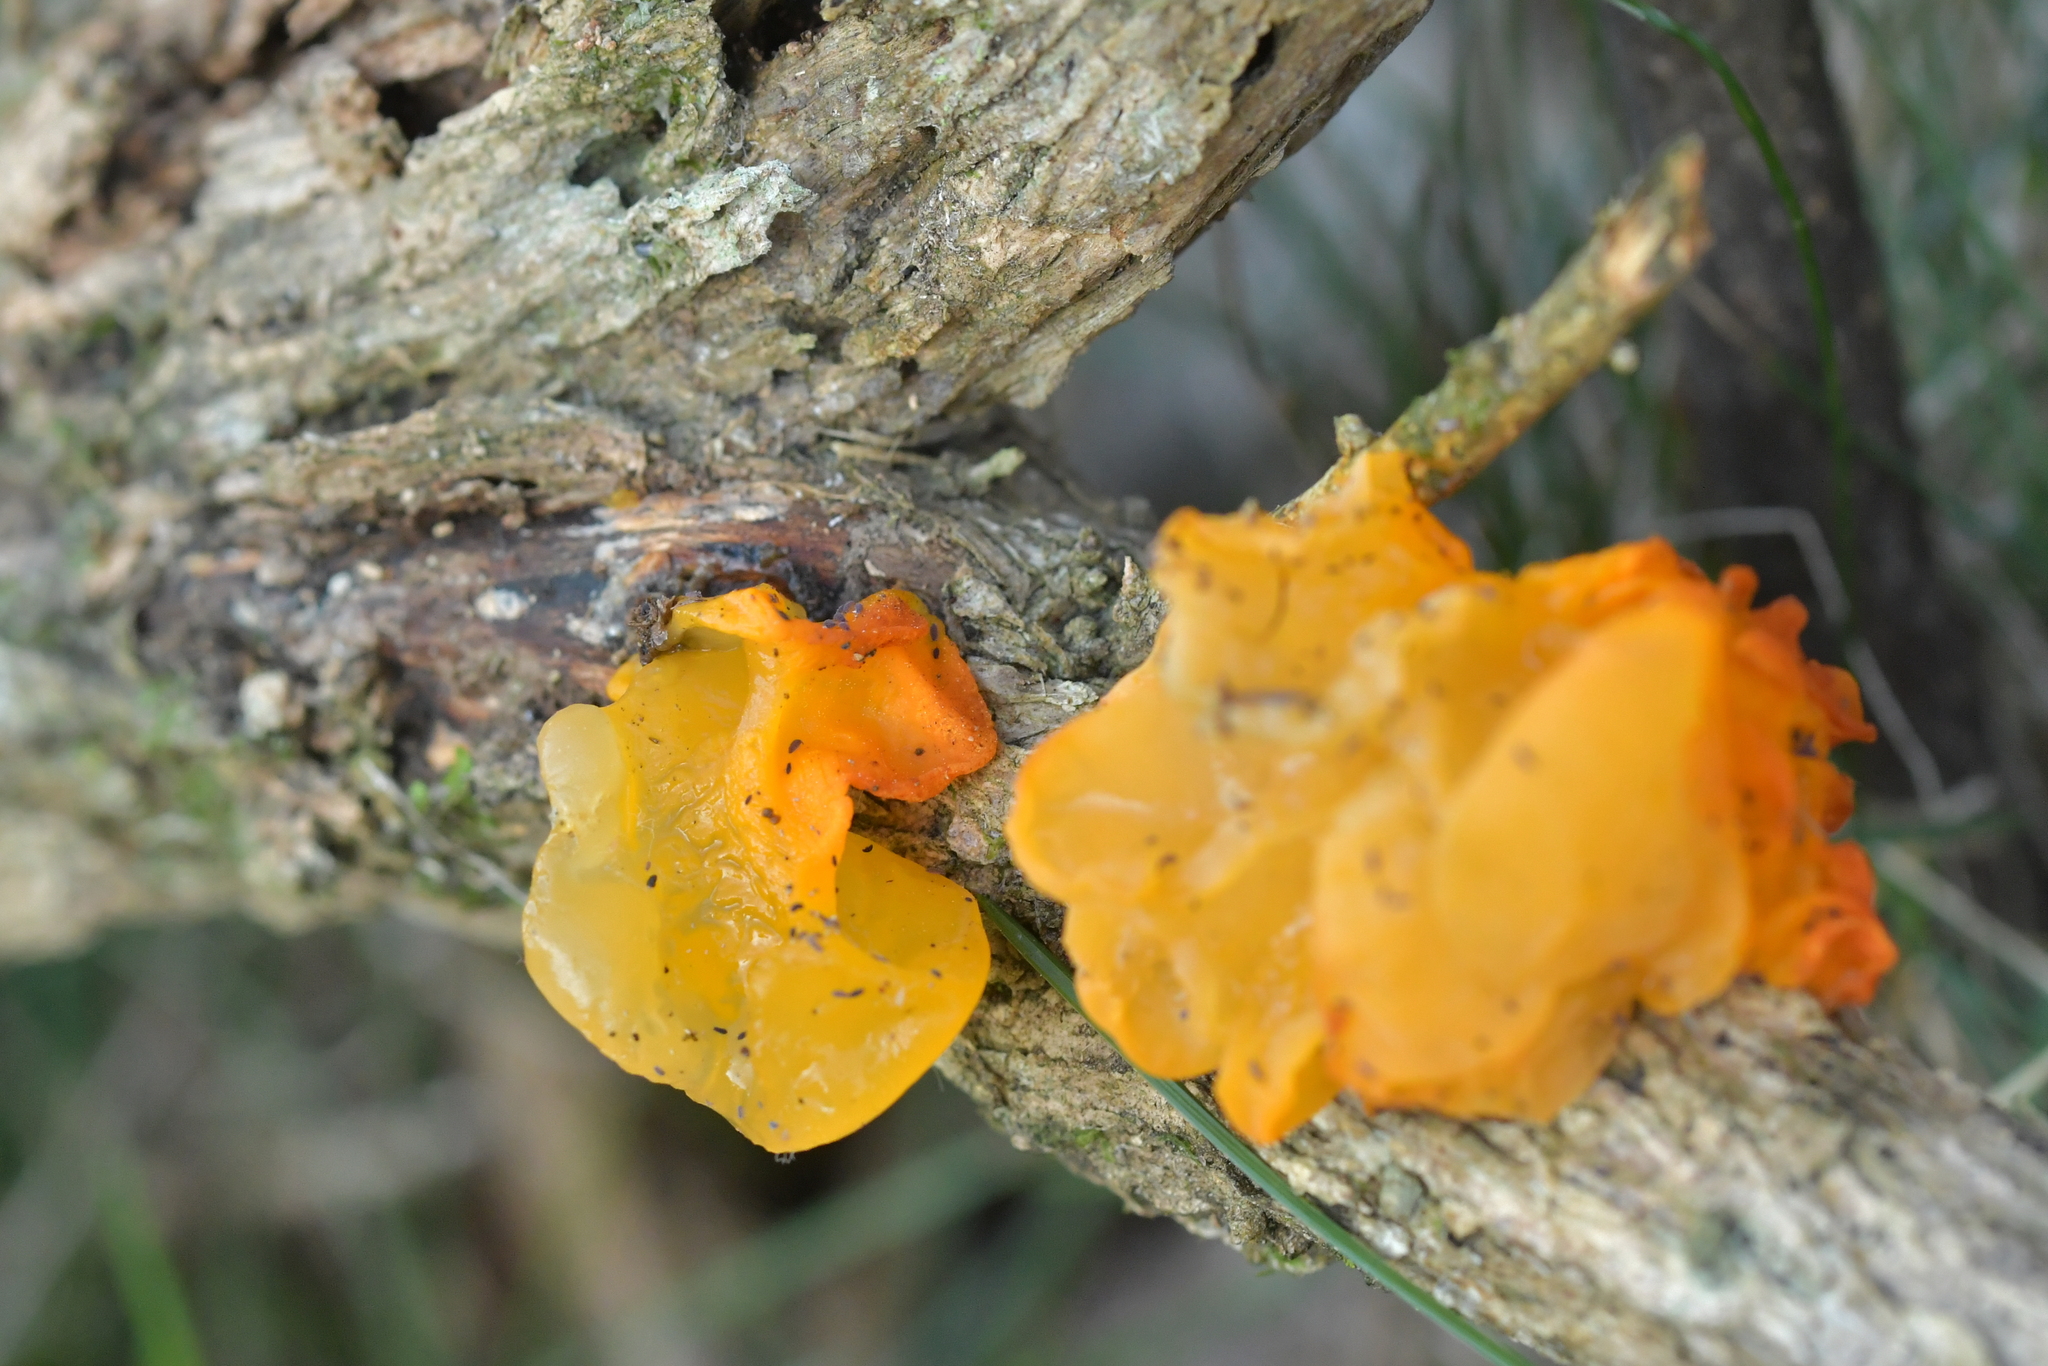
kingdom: Fungi
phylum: Basidiomycota
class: Tremellomycetes
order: Tremellales
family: Tremellaceae
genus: Tremella
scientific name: Tremella mesenterica
